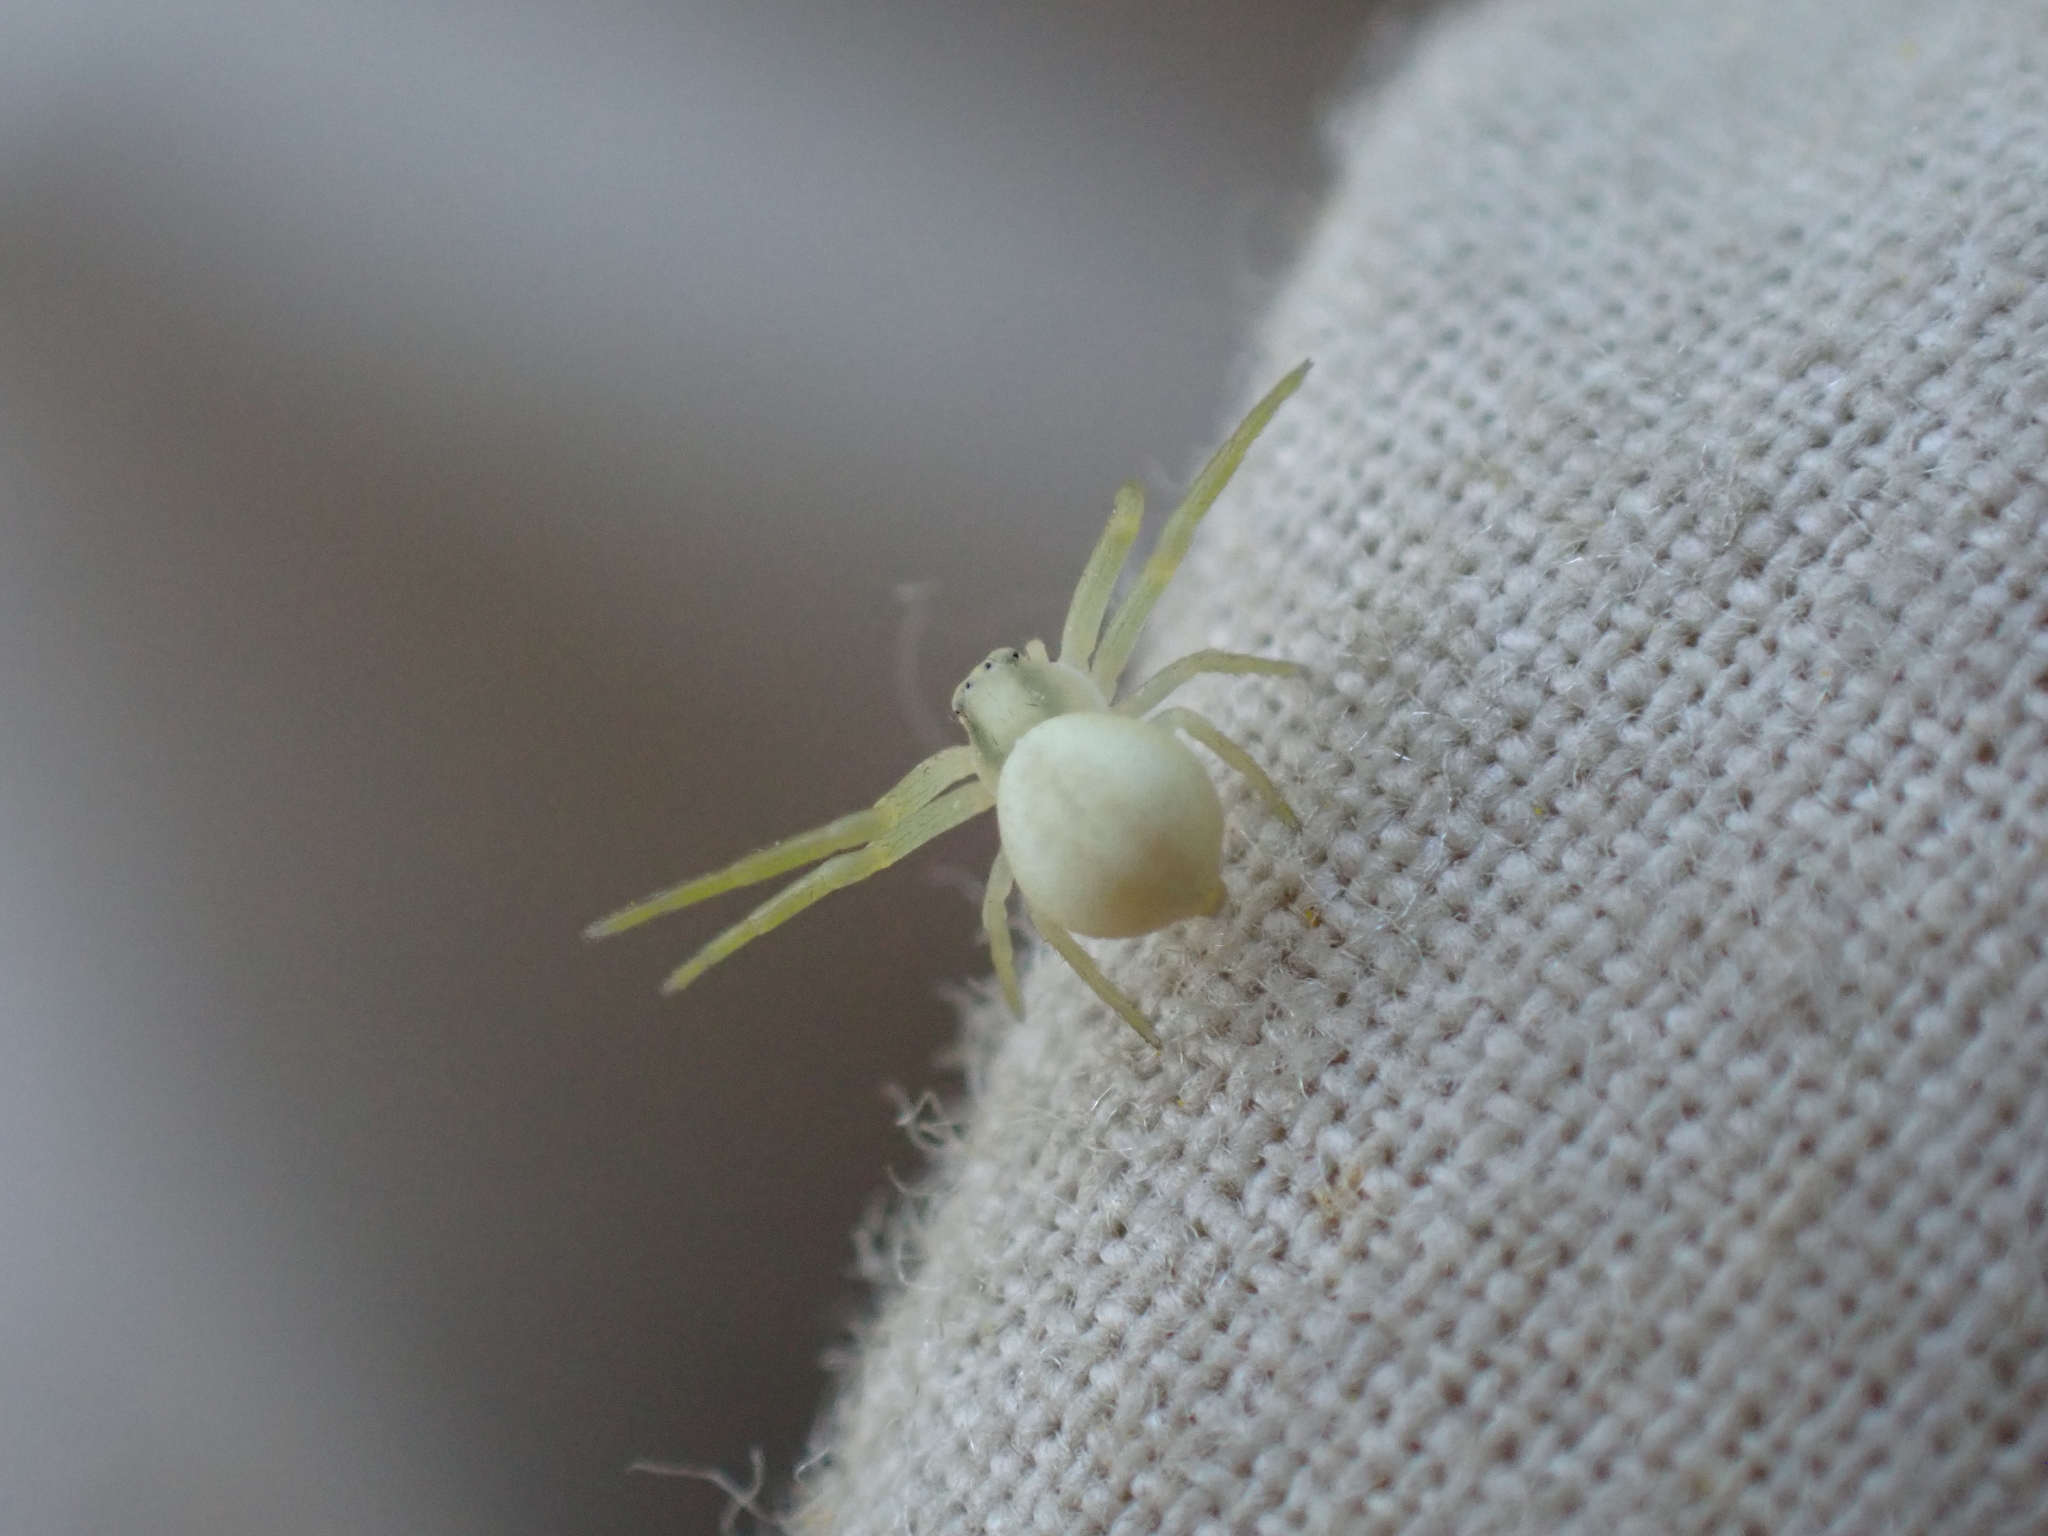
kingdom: Animalia
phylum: Arthropoda
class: Arachnida
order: Araneae
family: Thomisidae
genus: Misumena
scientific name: Misumena vatia
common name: Goldenrod crab spider
